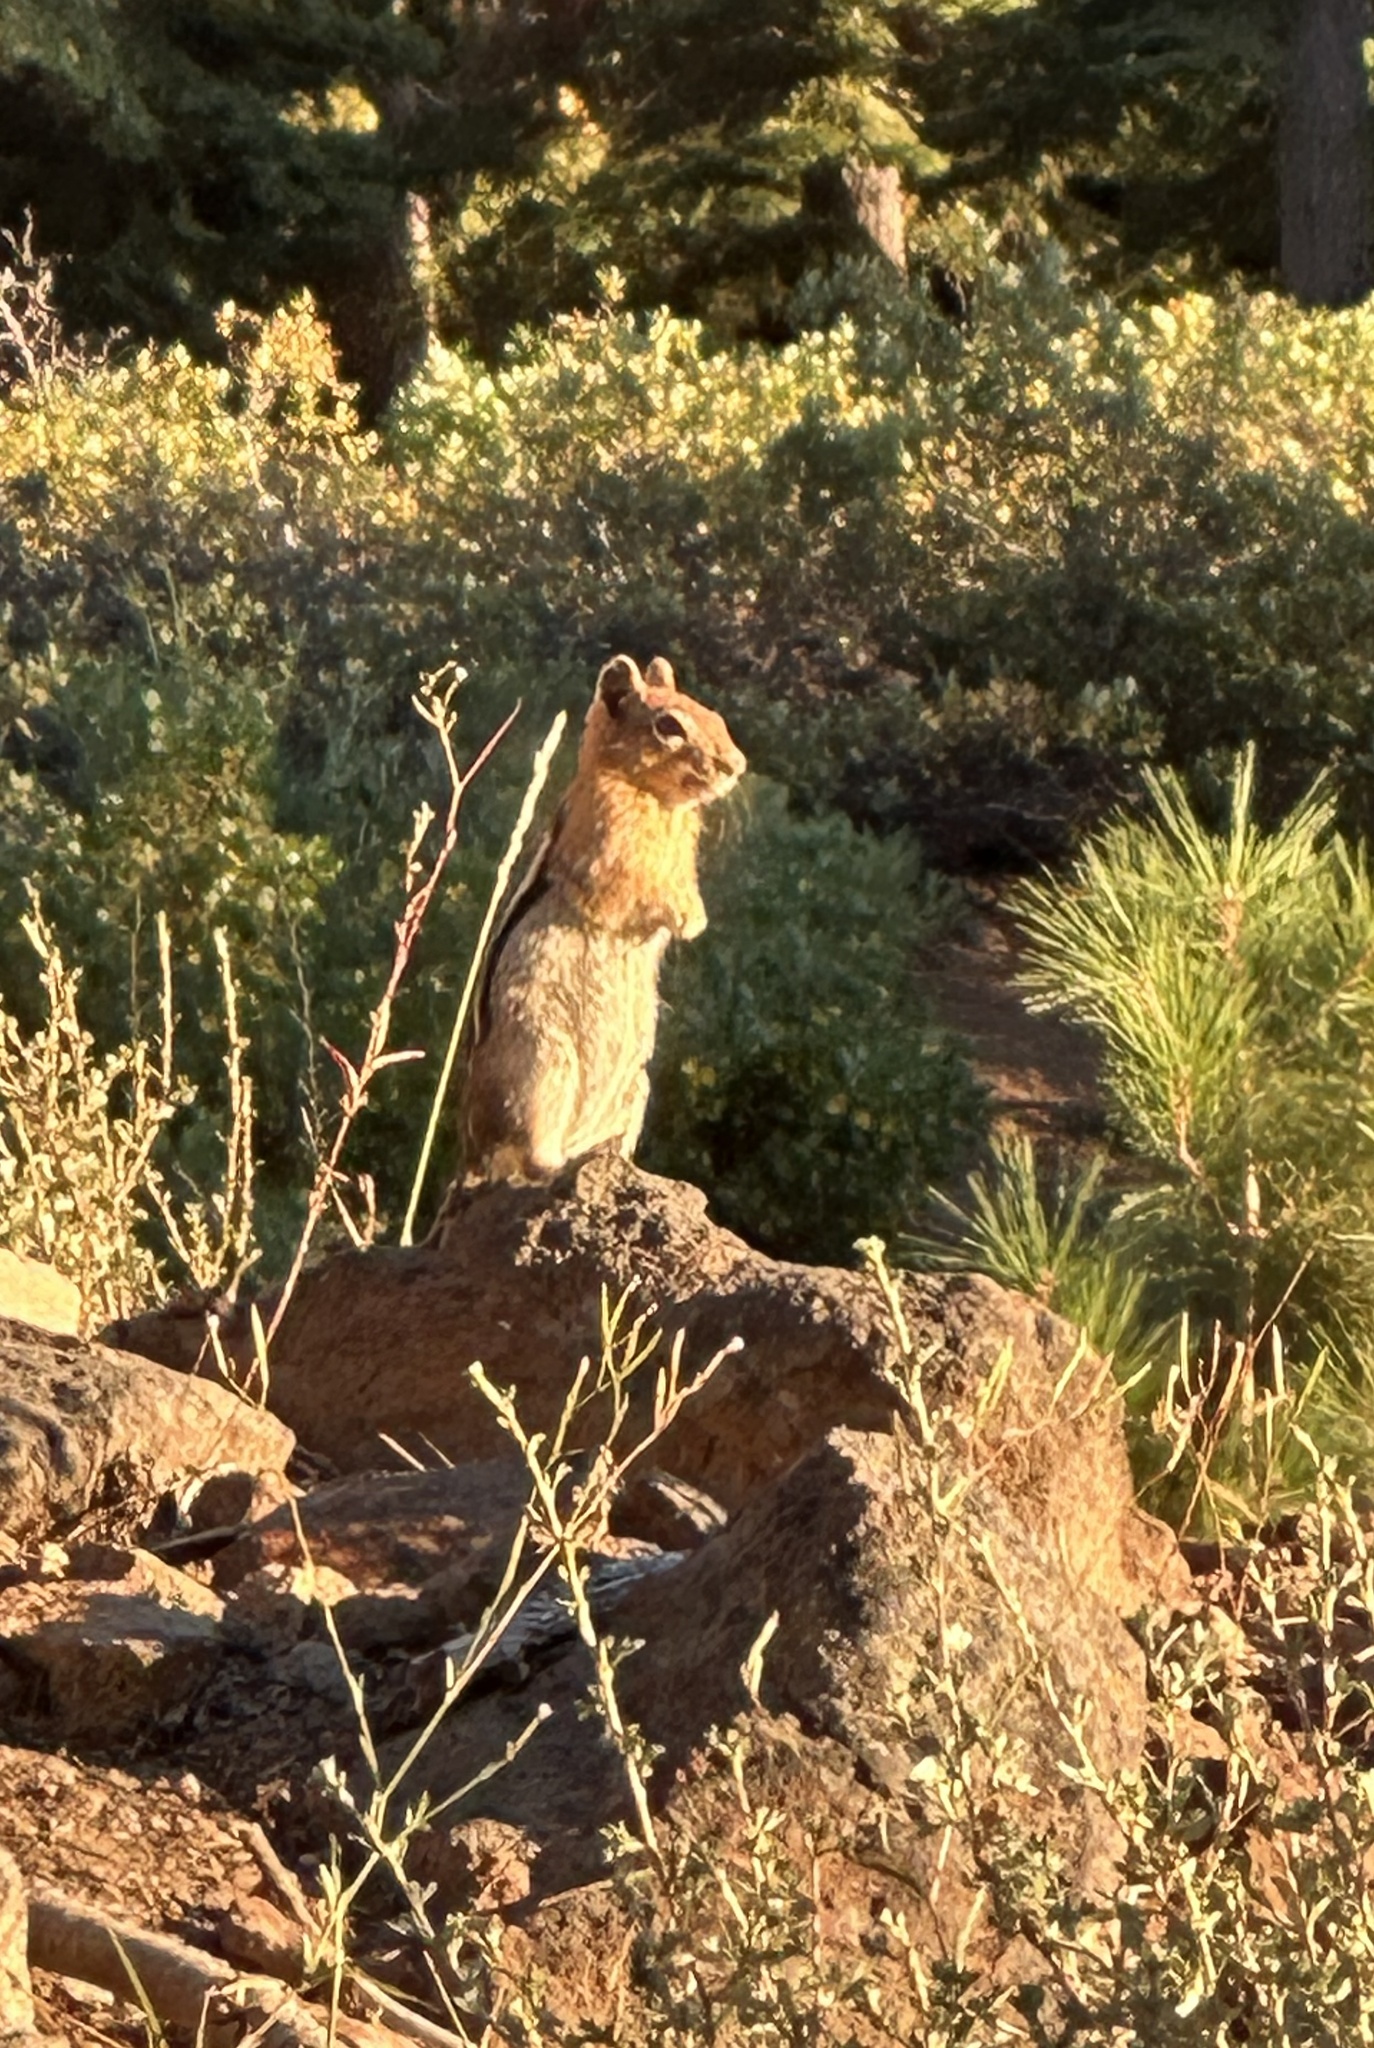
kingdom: Animalia
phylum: Chordata
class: Mammalia
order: Rodentia
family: Sciuridae
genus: Callospermophilus
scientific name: Callospermophilus lateralis
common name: Golden-mantled ground squirrel
